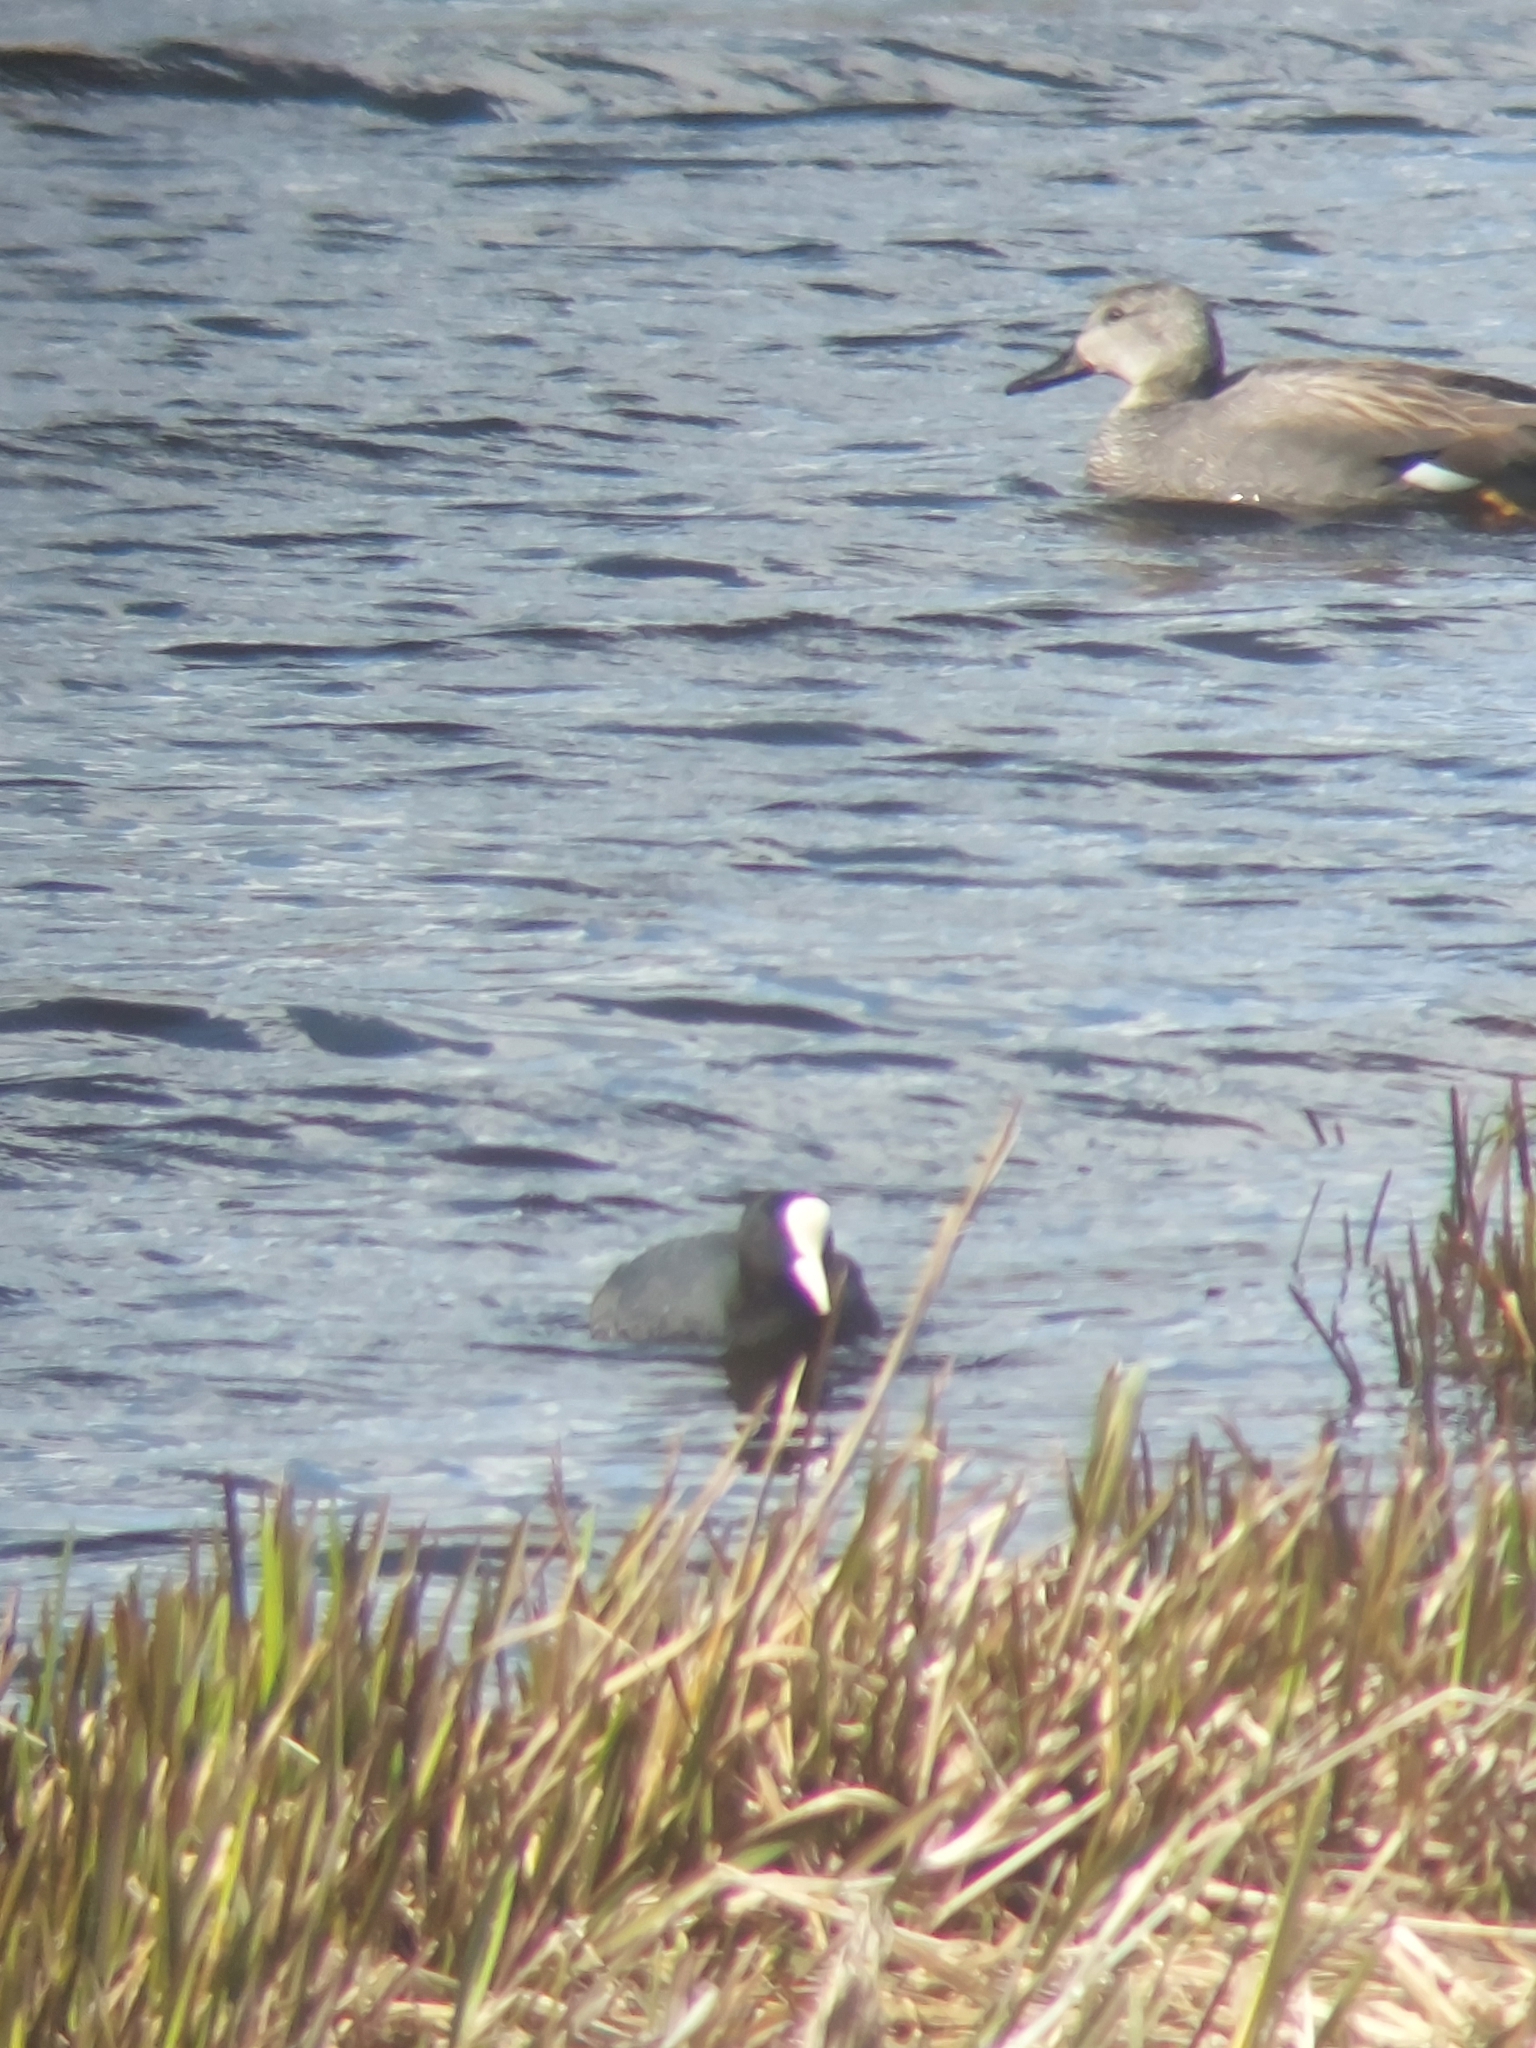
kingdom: Animalia
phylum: Chordata
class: Aves
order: Gruiformes
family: Rallidae
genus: Fulica
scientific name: Fulica atra
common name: Eurasian coot
